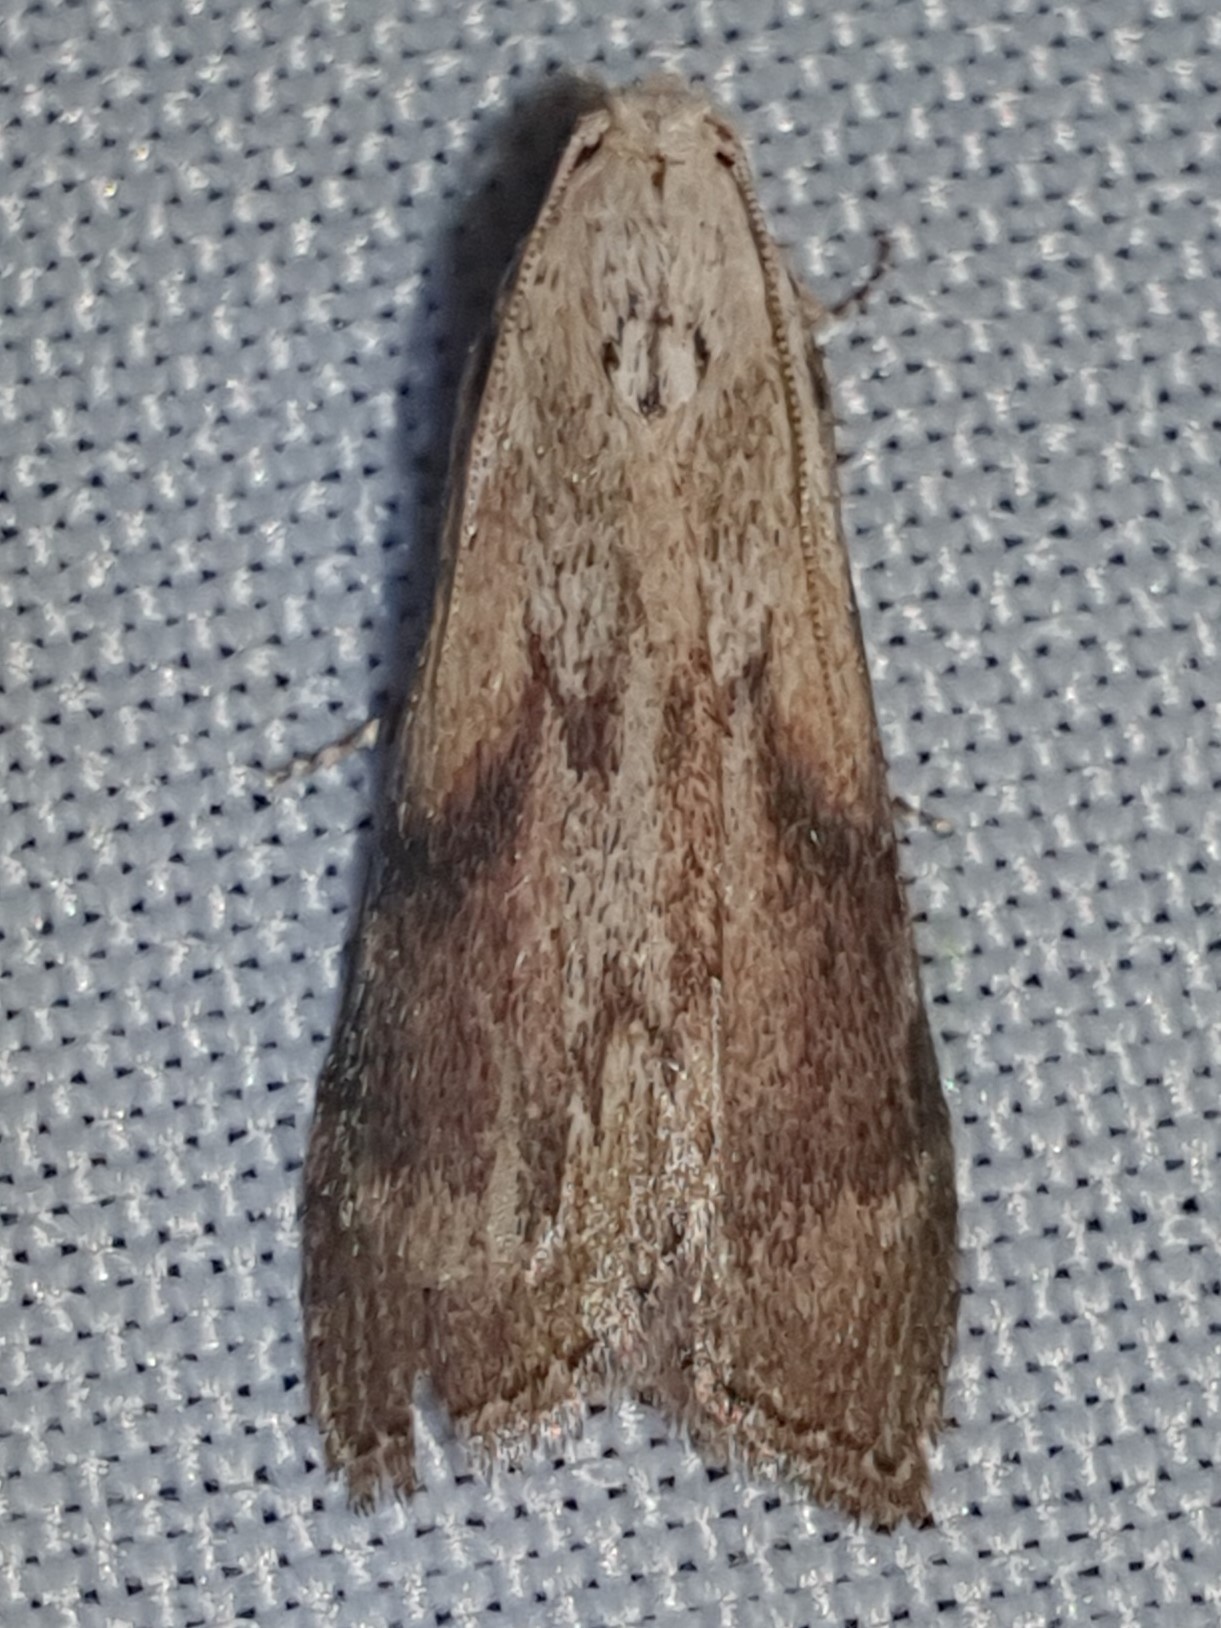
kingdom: Animalia
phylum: Arthropoda
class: Insecta
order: Lepidoptera
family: Pyralidae
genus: Aphomia
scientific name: Aphomia sociella
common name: Bee moth
